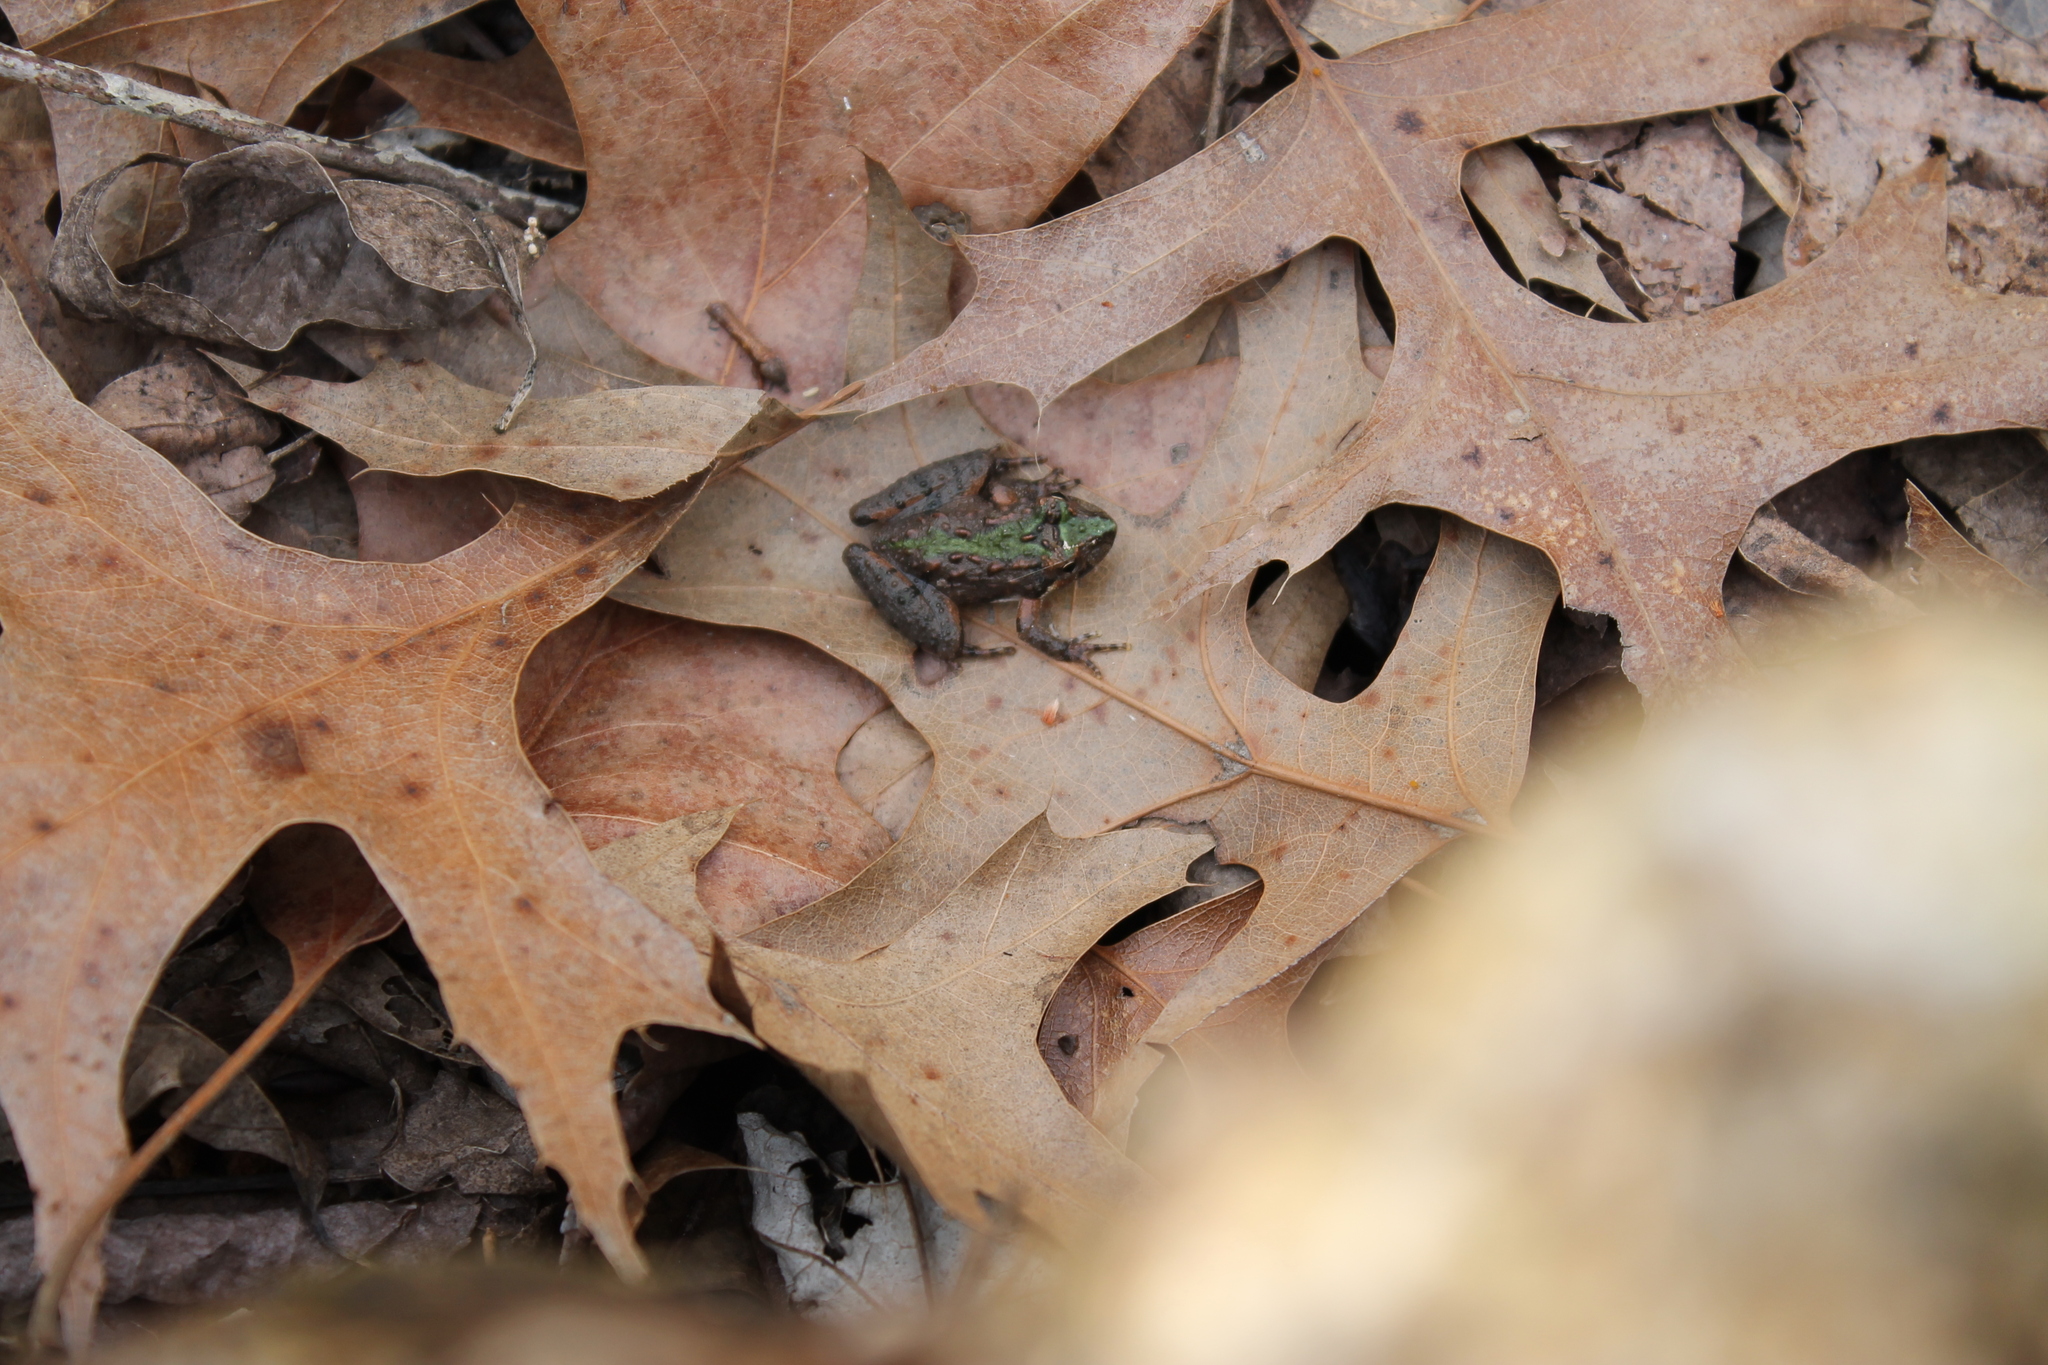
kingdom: Animalia
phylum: Chordata
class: Amphibia
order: Anura
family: Hylidae
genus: Acris
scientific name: Acris crepitans
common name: Northern cricket frog
